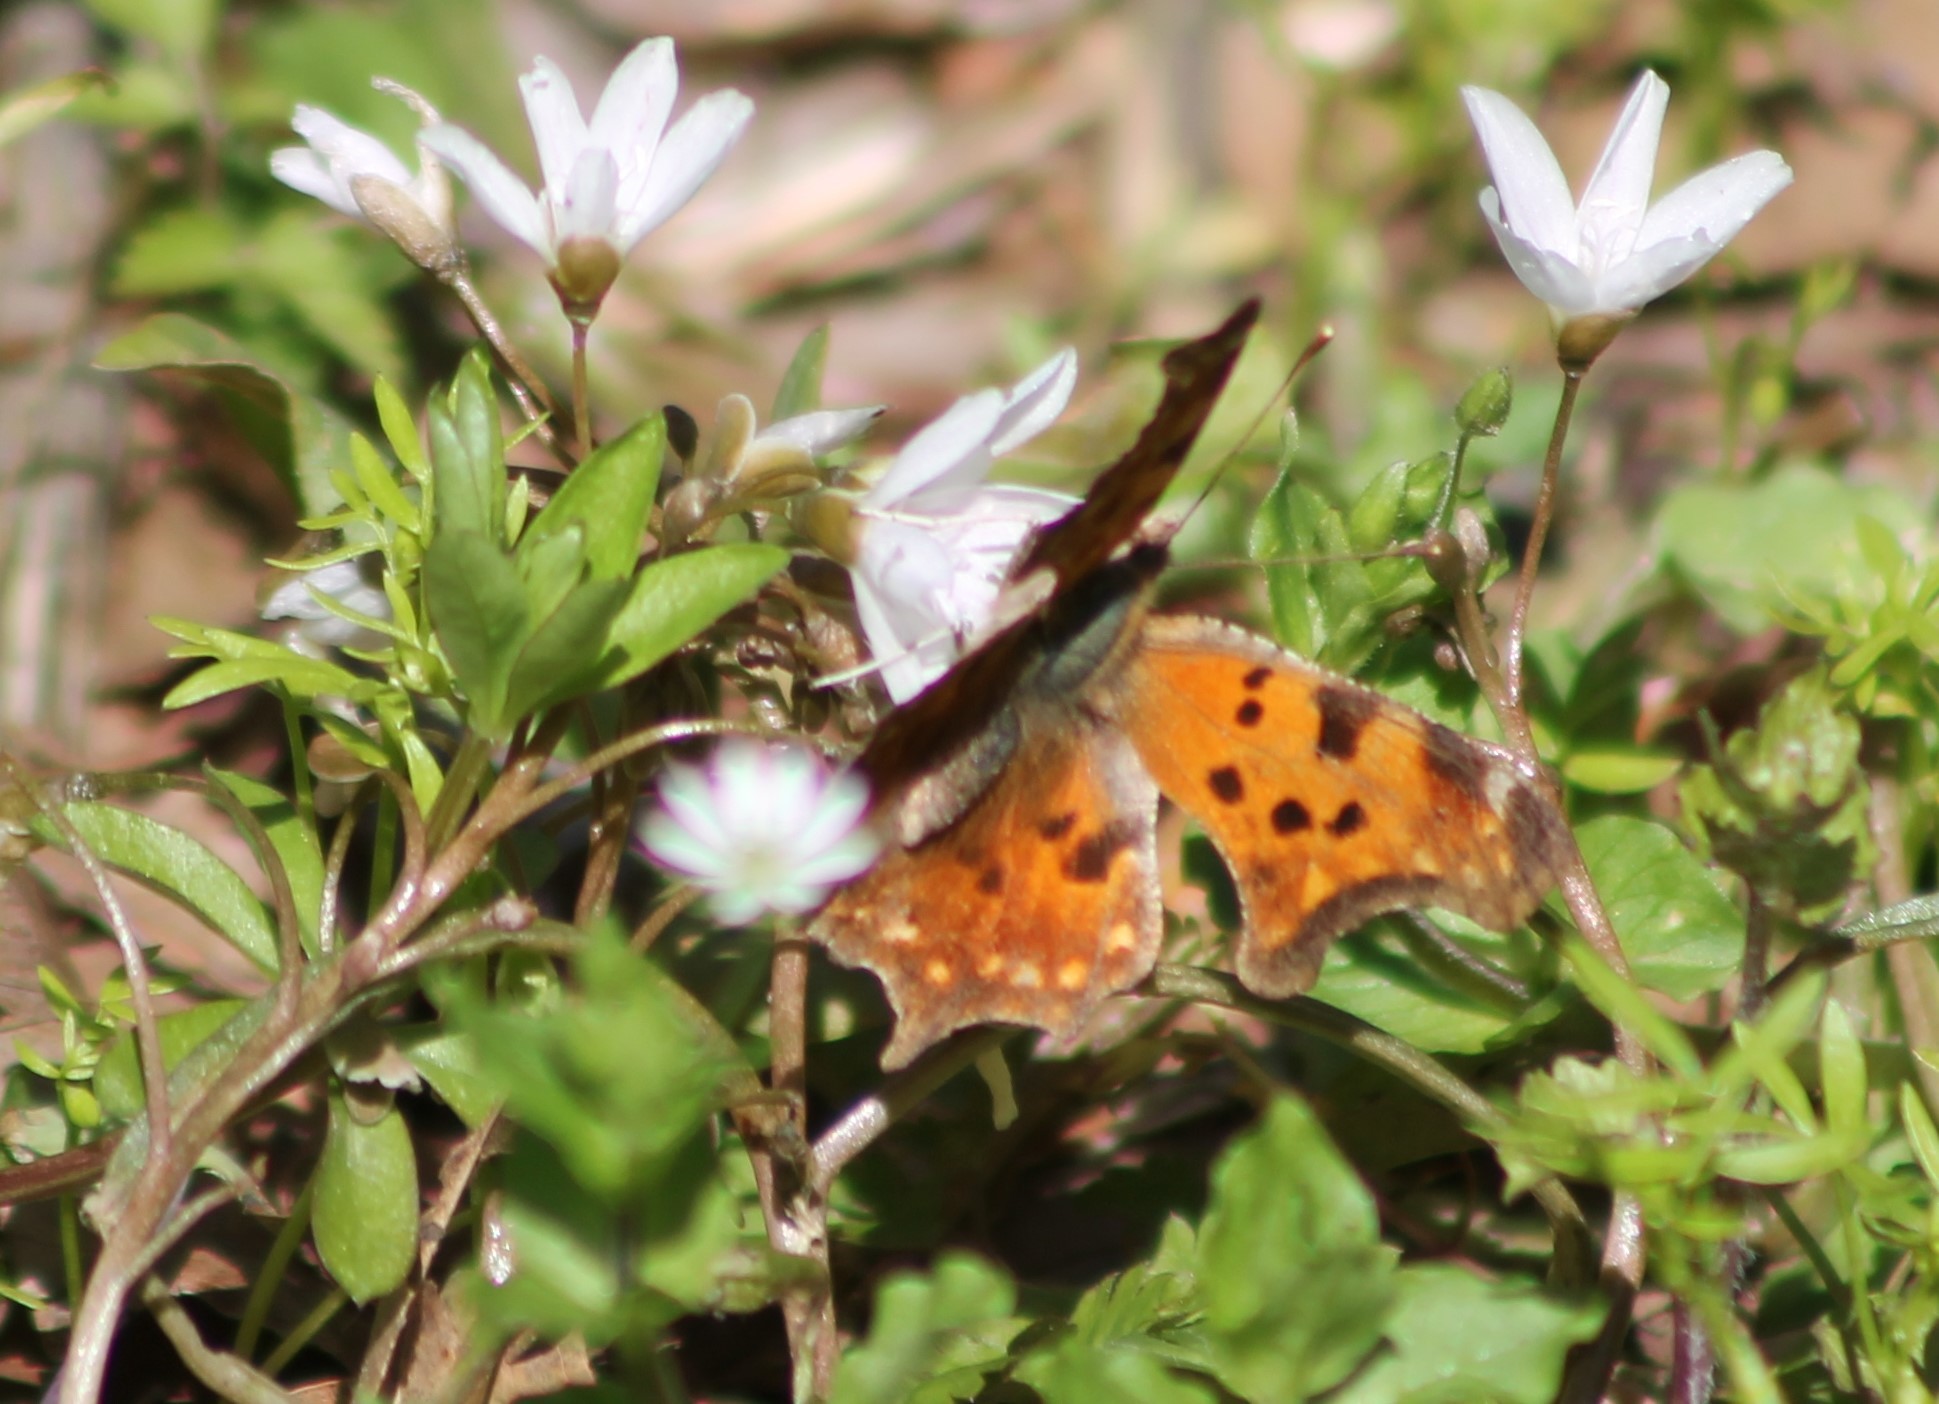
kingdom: Animalia
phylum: Arthropoda
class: Insecta
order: Lepidoptera
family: Nymphalidae
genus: Polygonia
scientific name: Polygonia comma
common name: Eastern comma
